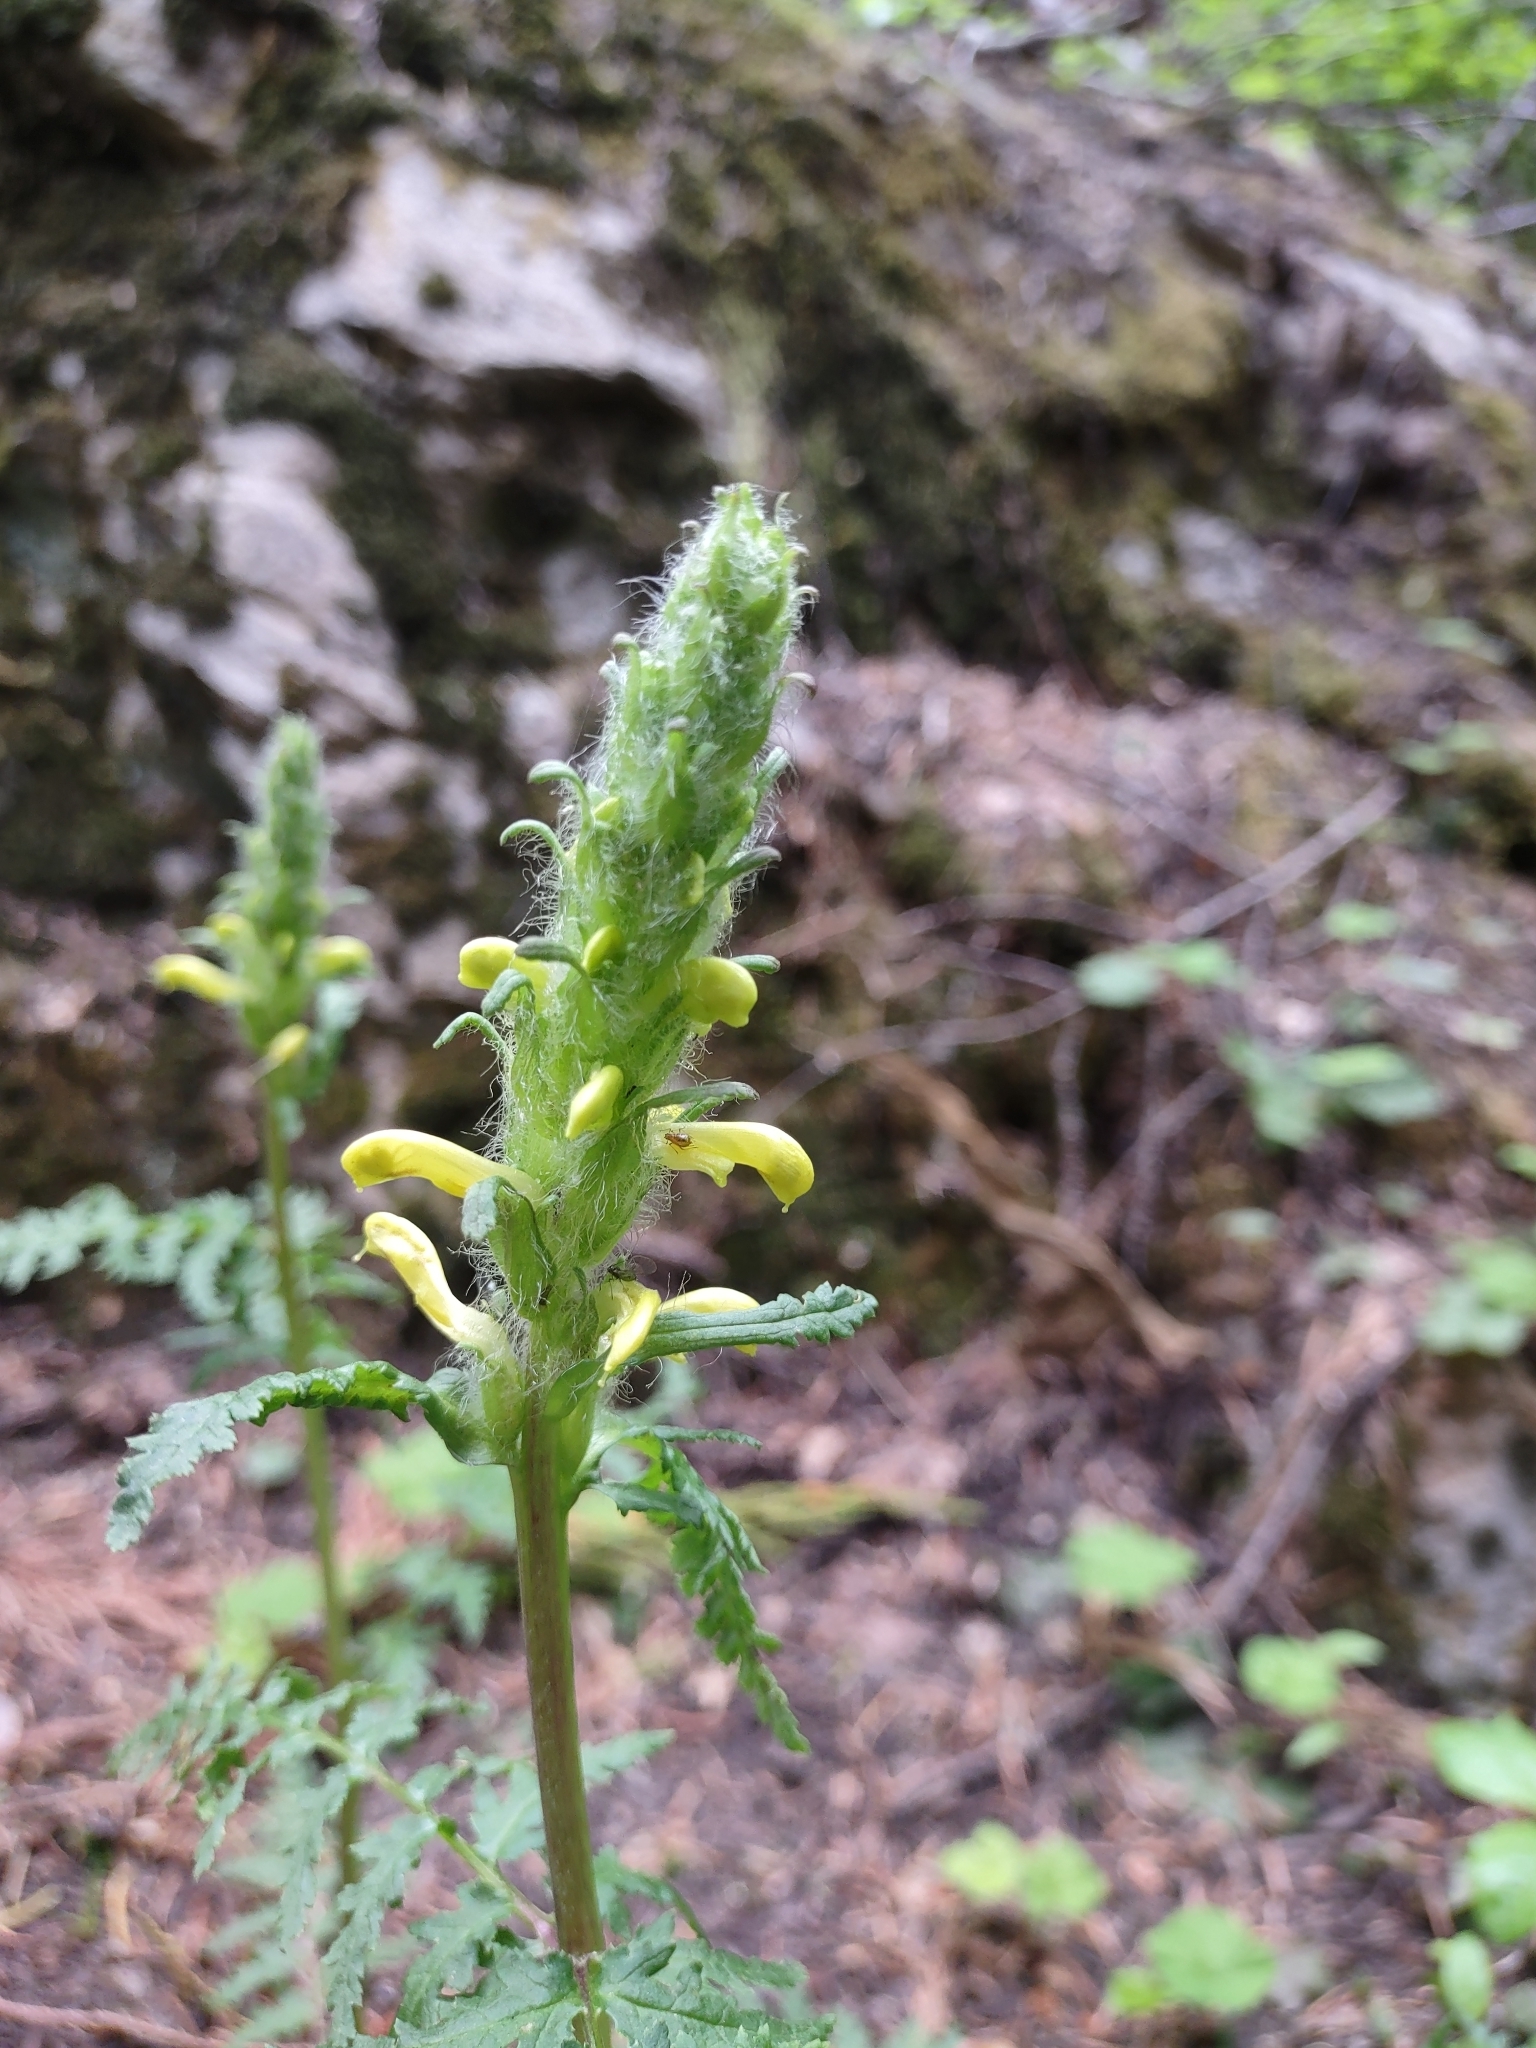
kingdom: Plantae
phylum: Tracheophyta
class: Magnoliopsida
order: Lamiales
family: Orobanchaceae
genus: Pedicularis
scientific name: Pedicularis rainierensis
